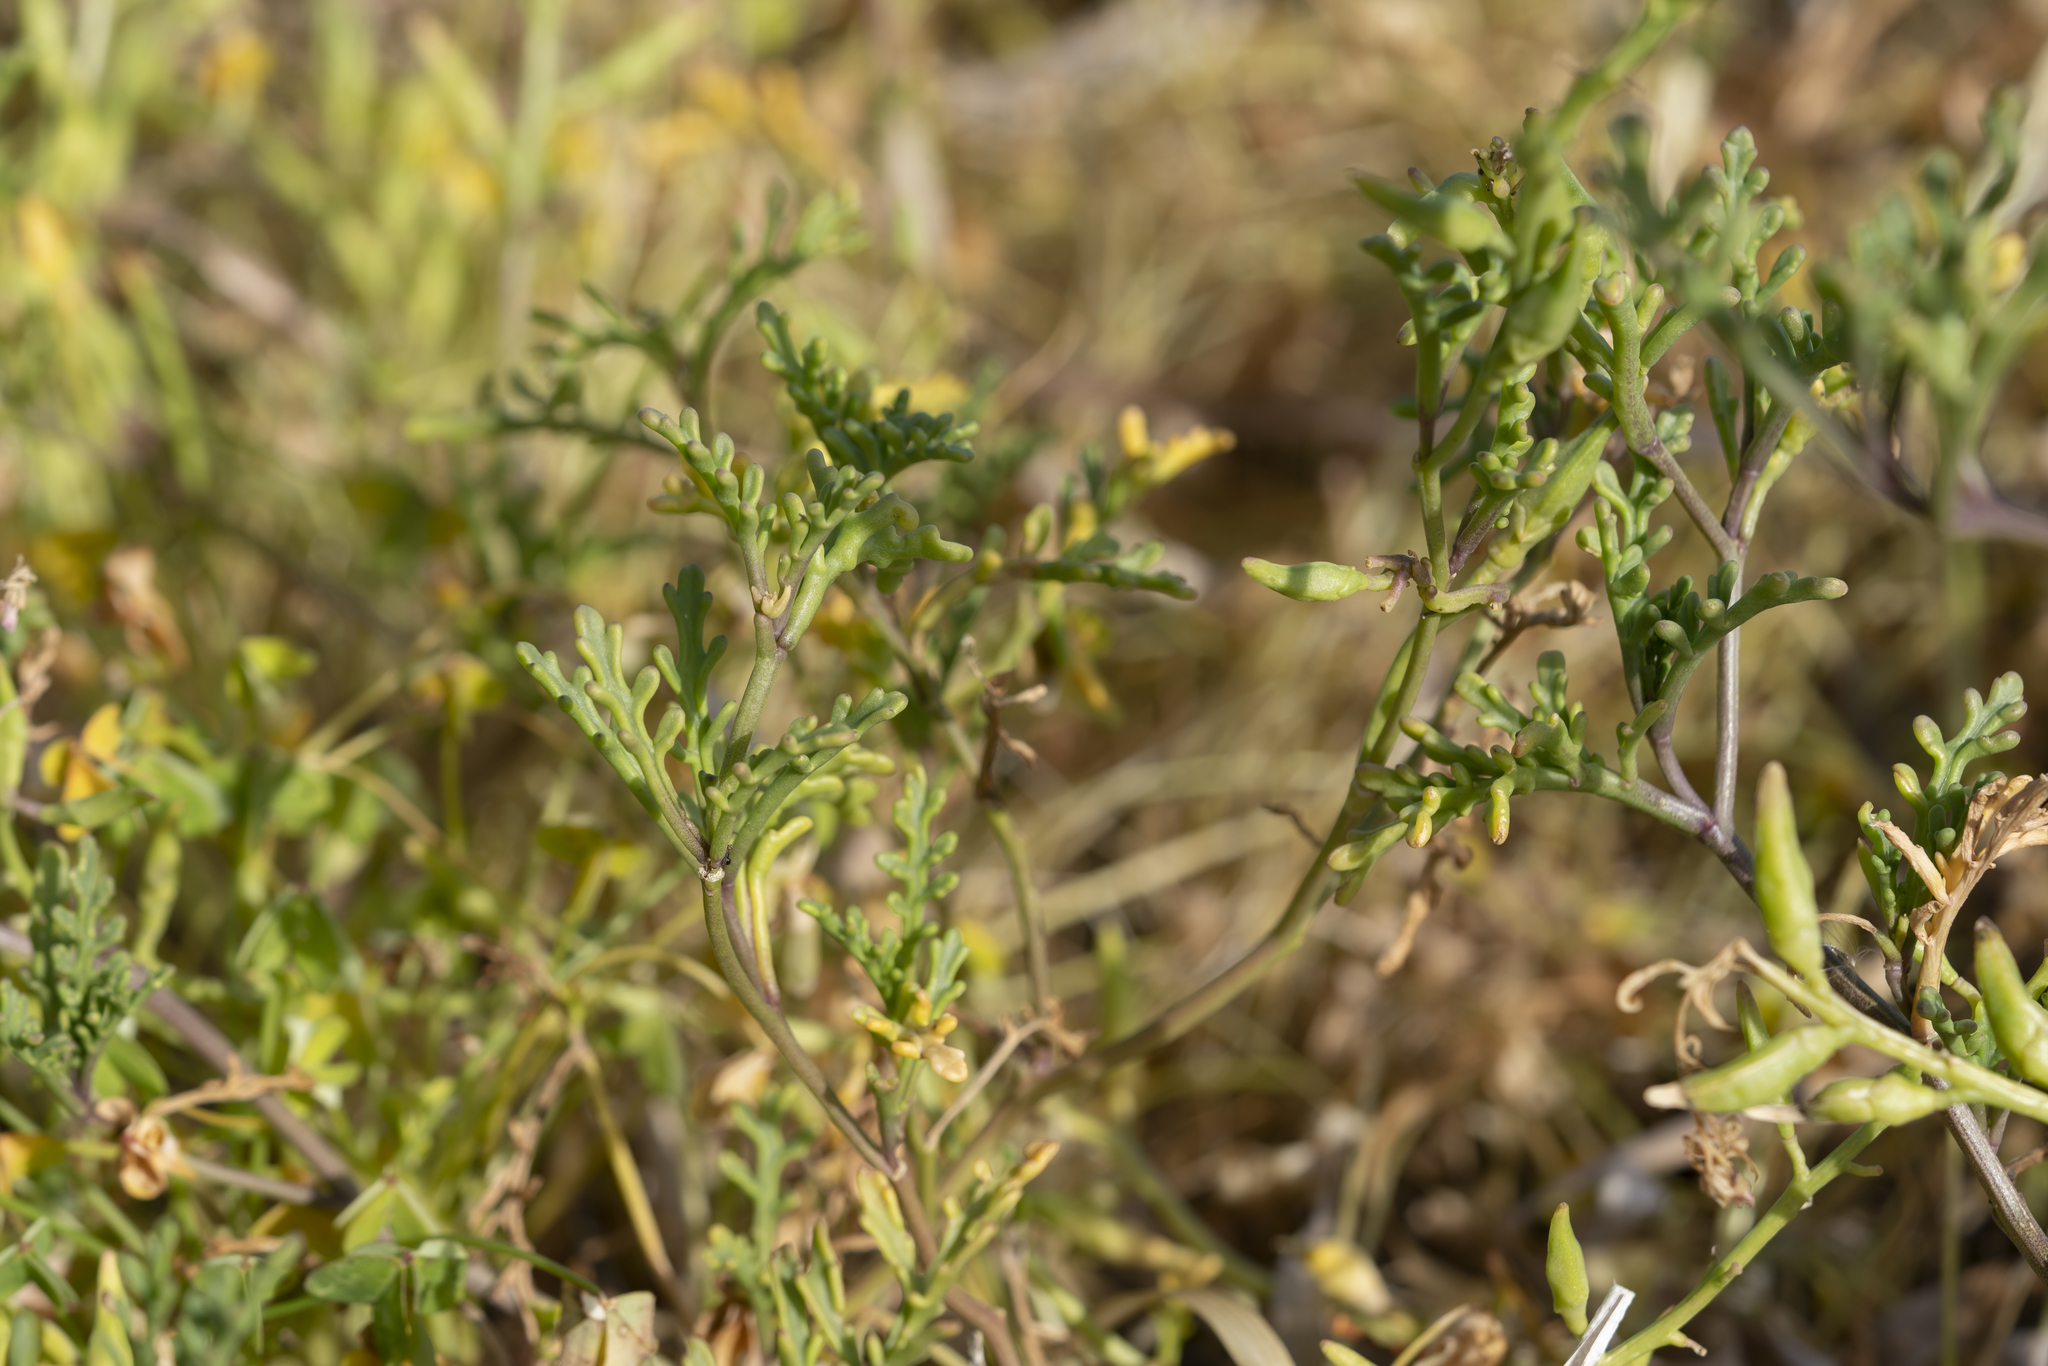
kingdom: Plantae
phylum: Tracheophyta
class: Magnoliopsida
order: Brassicales
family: Brassicaceae
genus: Cakile
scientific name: Cakile maritima
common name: Sea rocket
